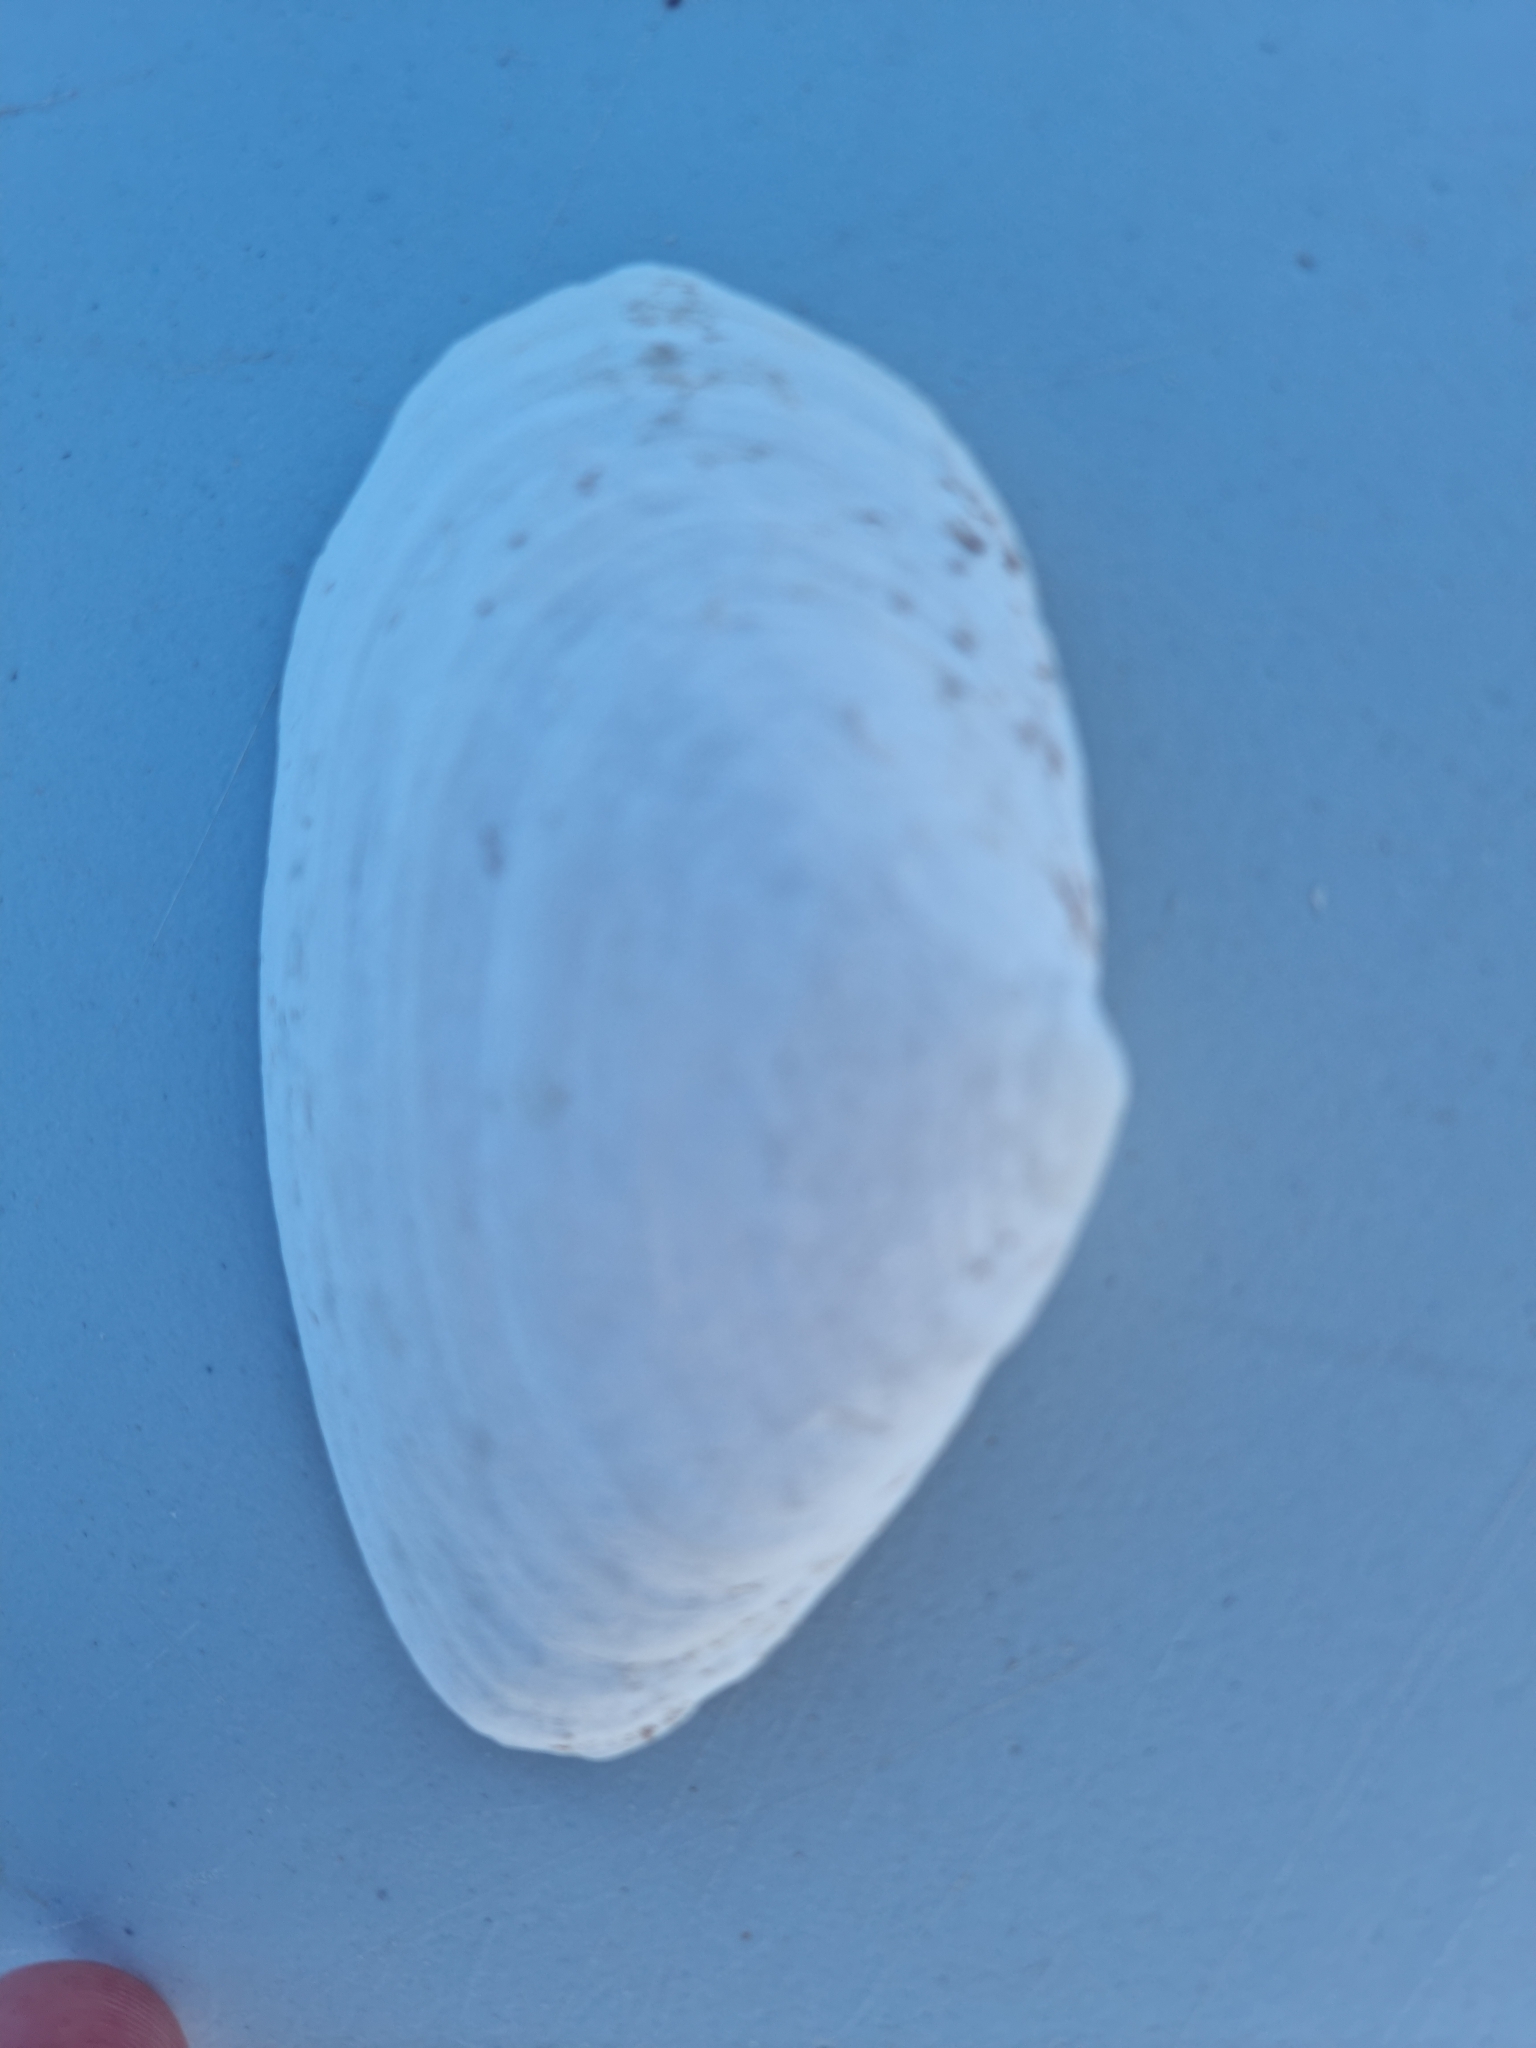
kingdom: Animalia
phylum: Mollusca
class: Bivalvia
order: Myida
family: Myidae
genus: Mya
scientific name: Mya arenaria
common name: Soft-shelled clam
